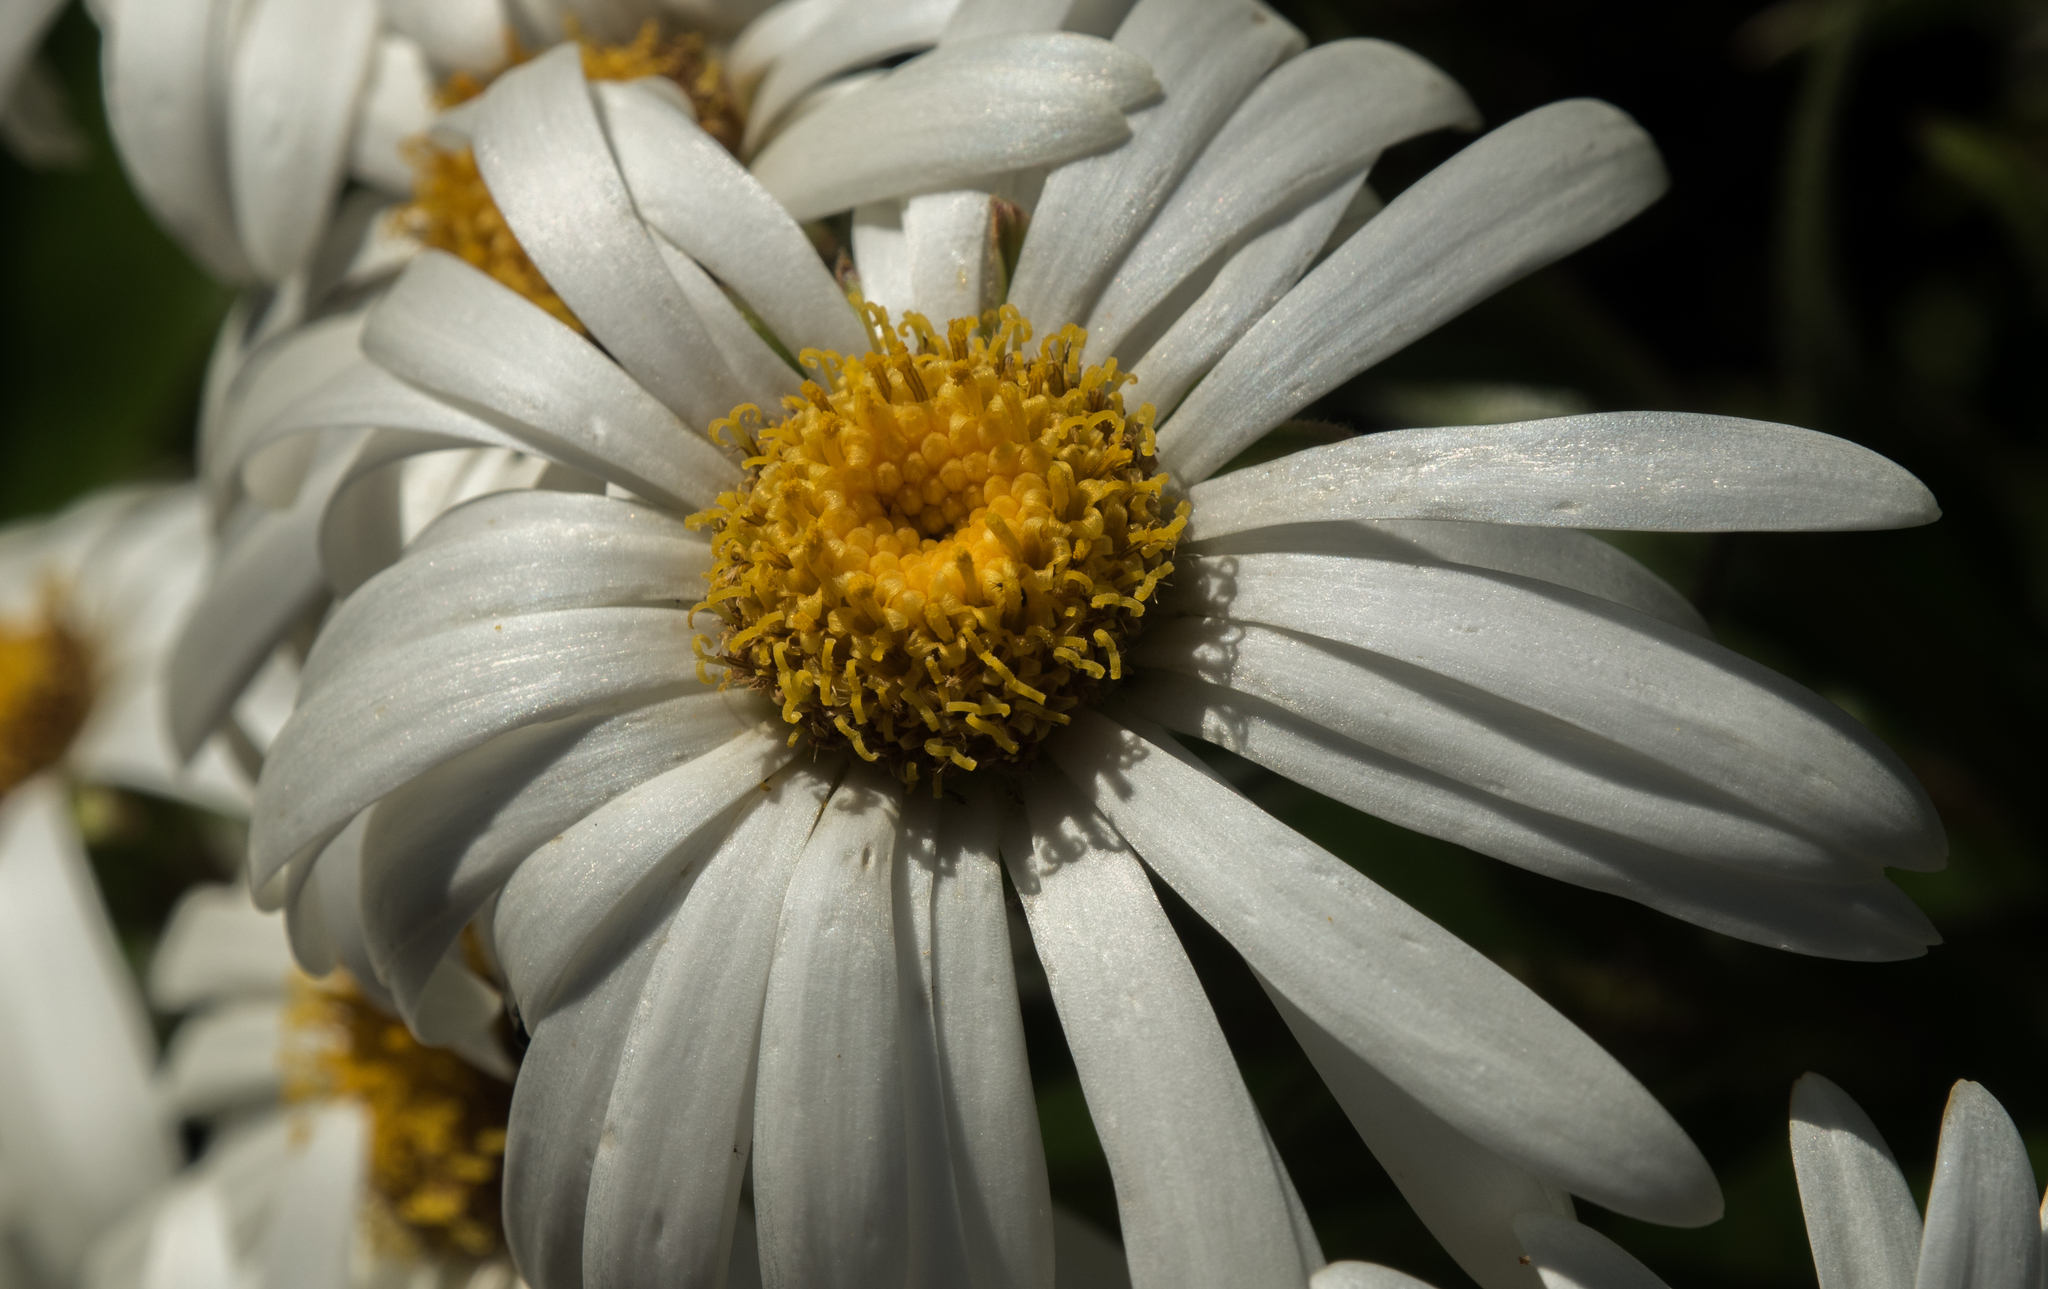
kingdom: Plantae
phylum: Tracheophyta
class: Magnoliopsida
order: Asterales
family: Asteraceae
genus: Dolichoglottis
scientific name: Dolichoglottis scorzoneroides
